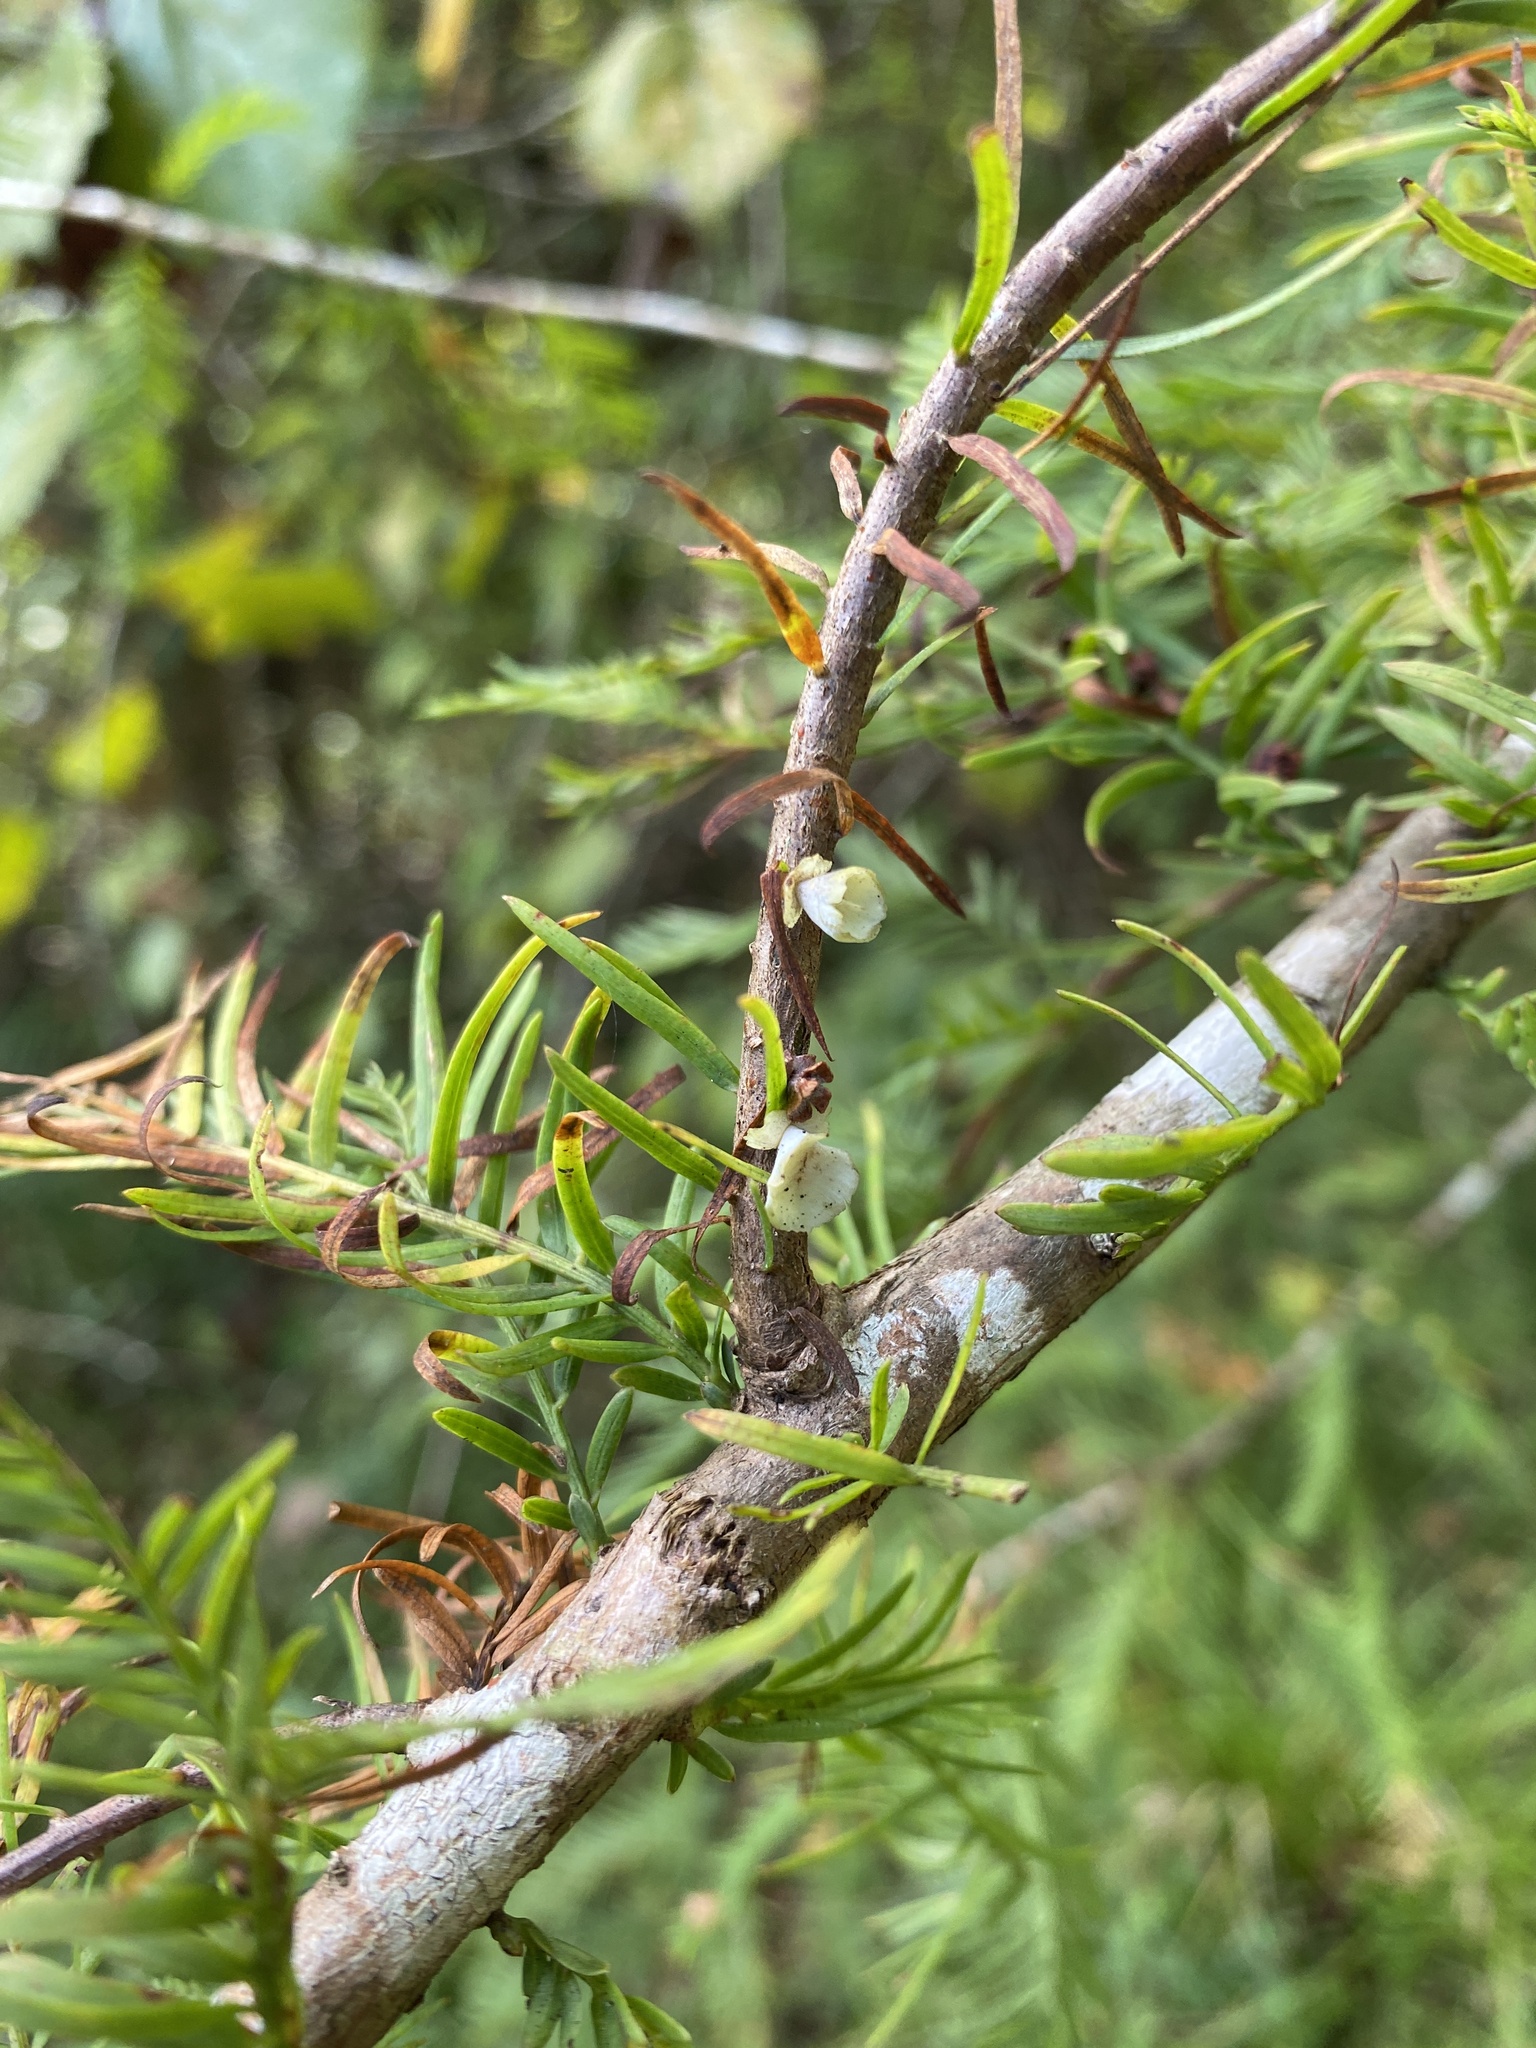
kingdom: Animalia
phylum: Arthropoda
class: Insecta
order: Diptera
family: Cecidomyiidae
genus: Taxodiomyia
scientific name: Taxodiomyia cupressi
